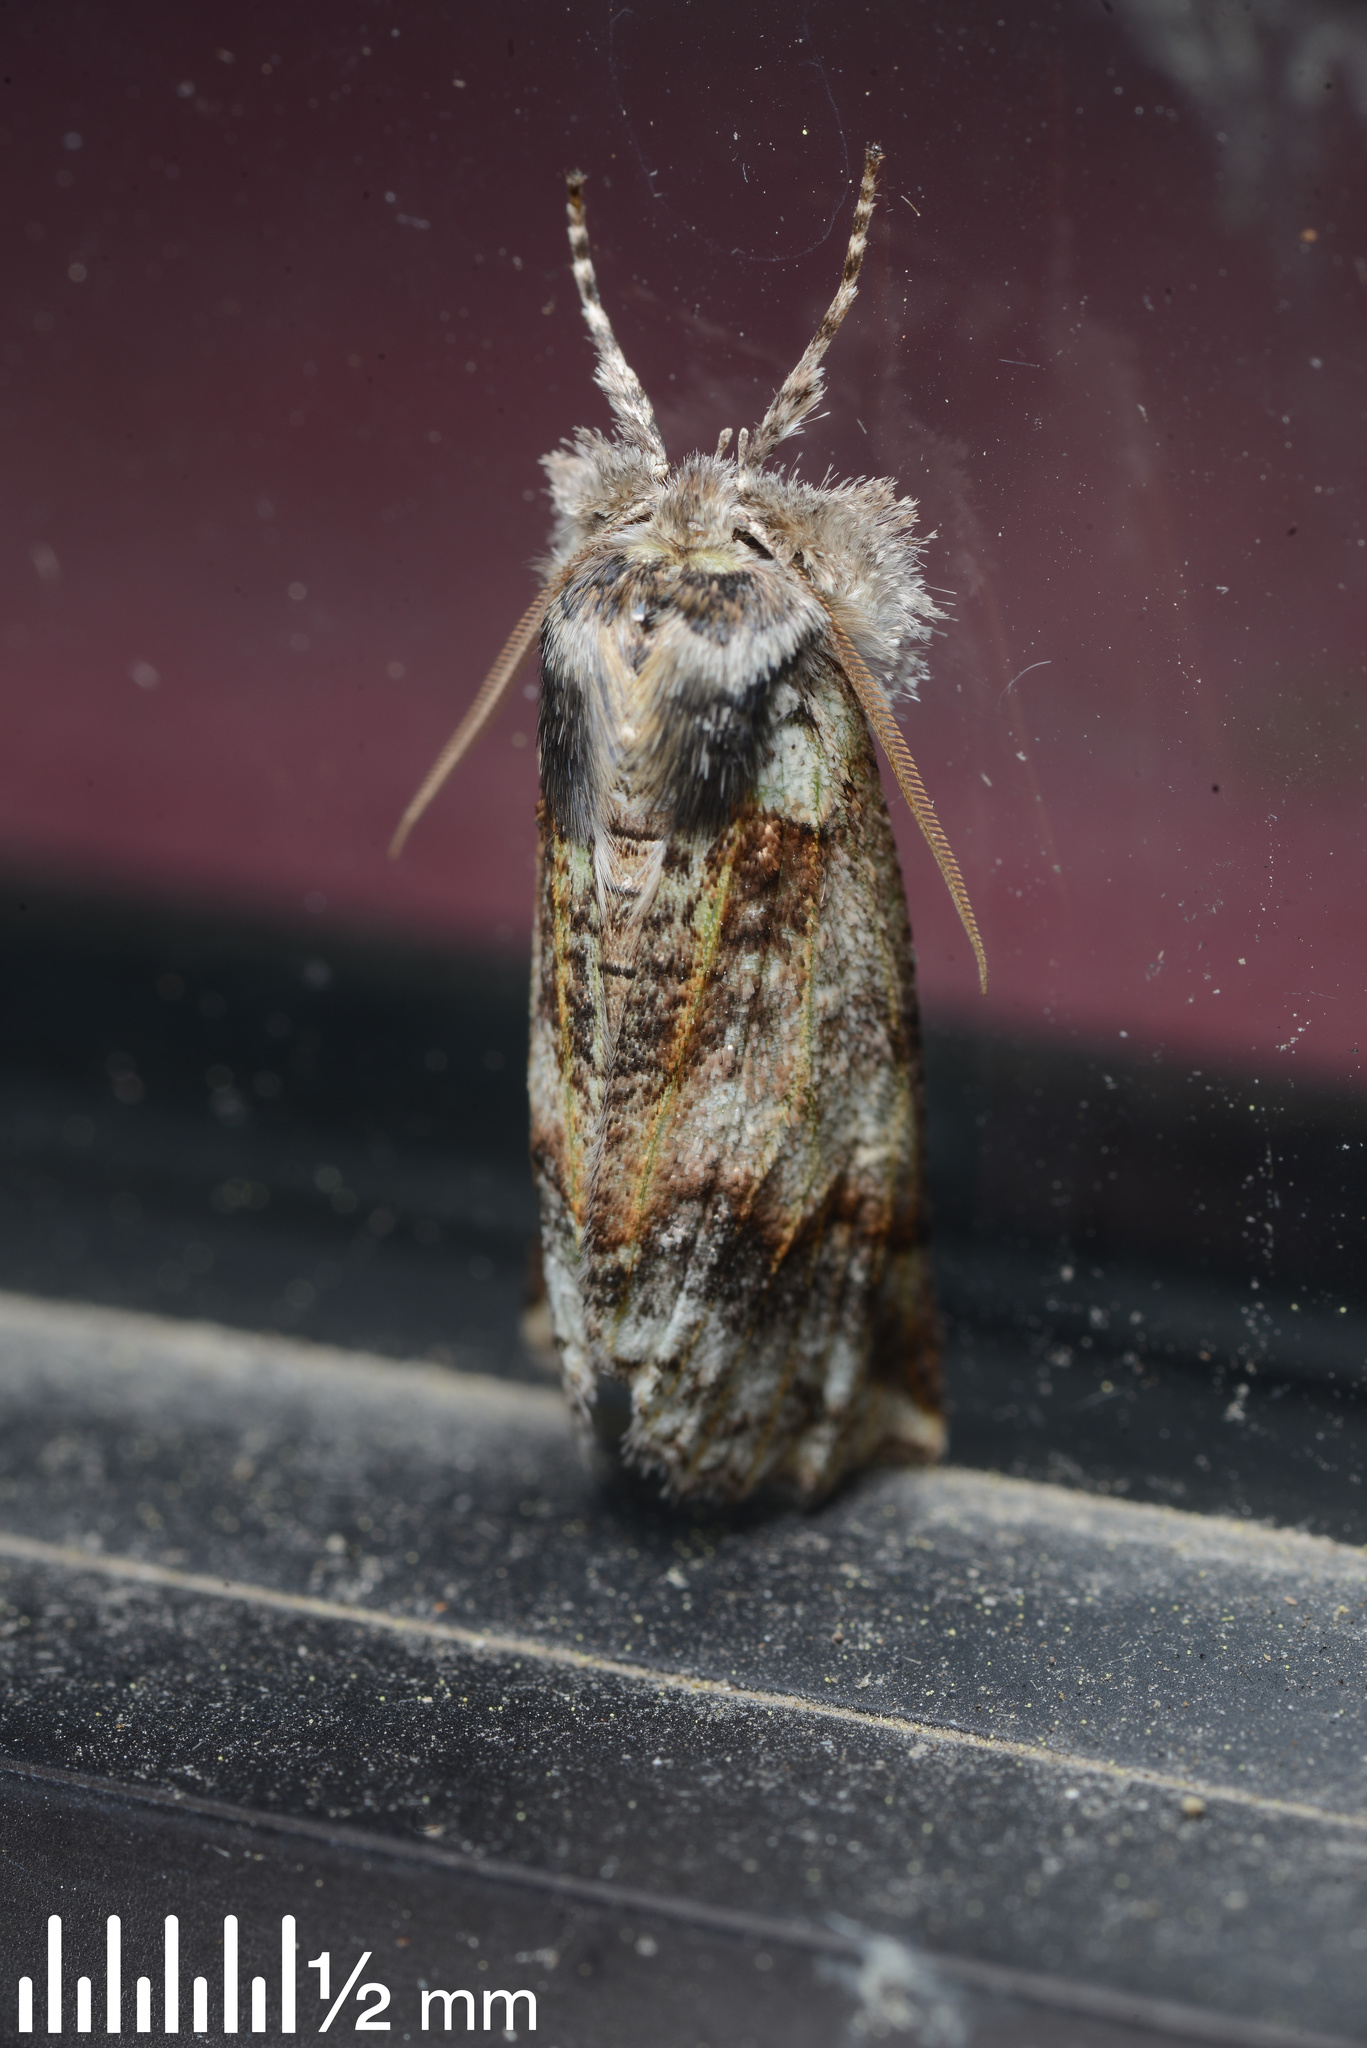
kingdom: Animalia
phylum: Arthropoda
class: Insecta
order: Lepidoptera
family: Geometridae
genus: Declana
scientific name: Declana floccosa
